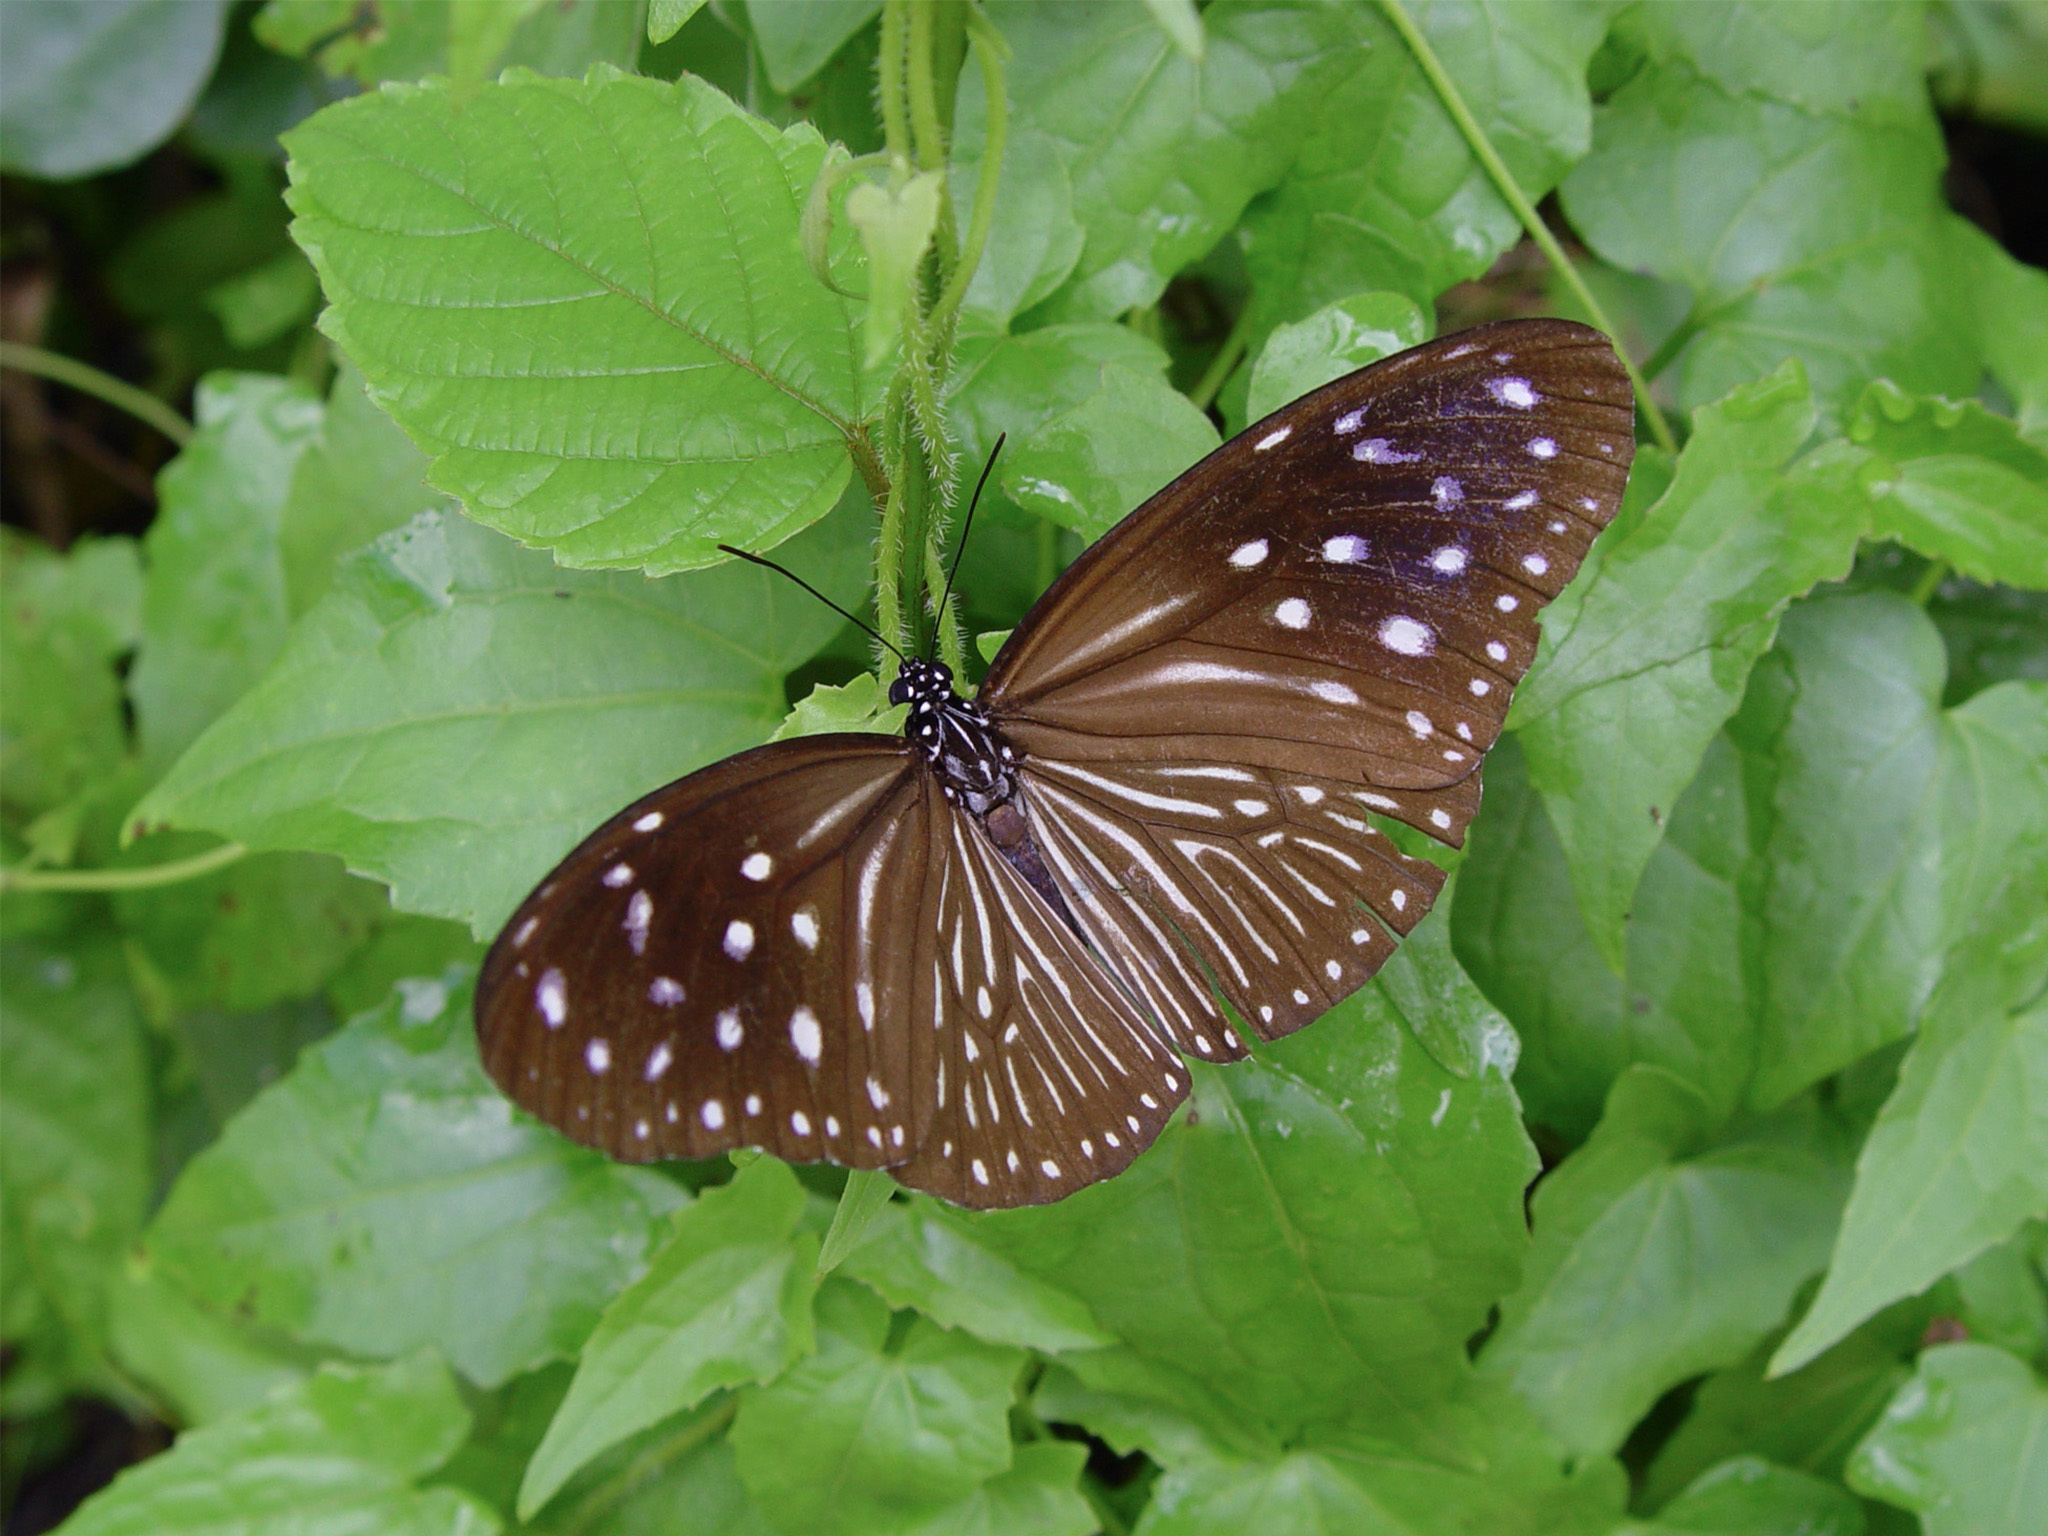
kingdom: Animalia
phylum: Arthropoda
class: Insecta
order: Lepidoptera
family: Nymphalidae
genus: Euploea
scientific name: Euploea mulciber
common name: Striped blue crow butterfly
